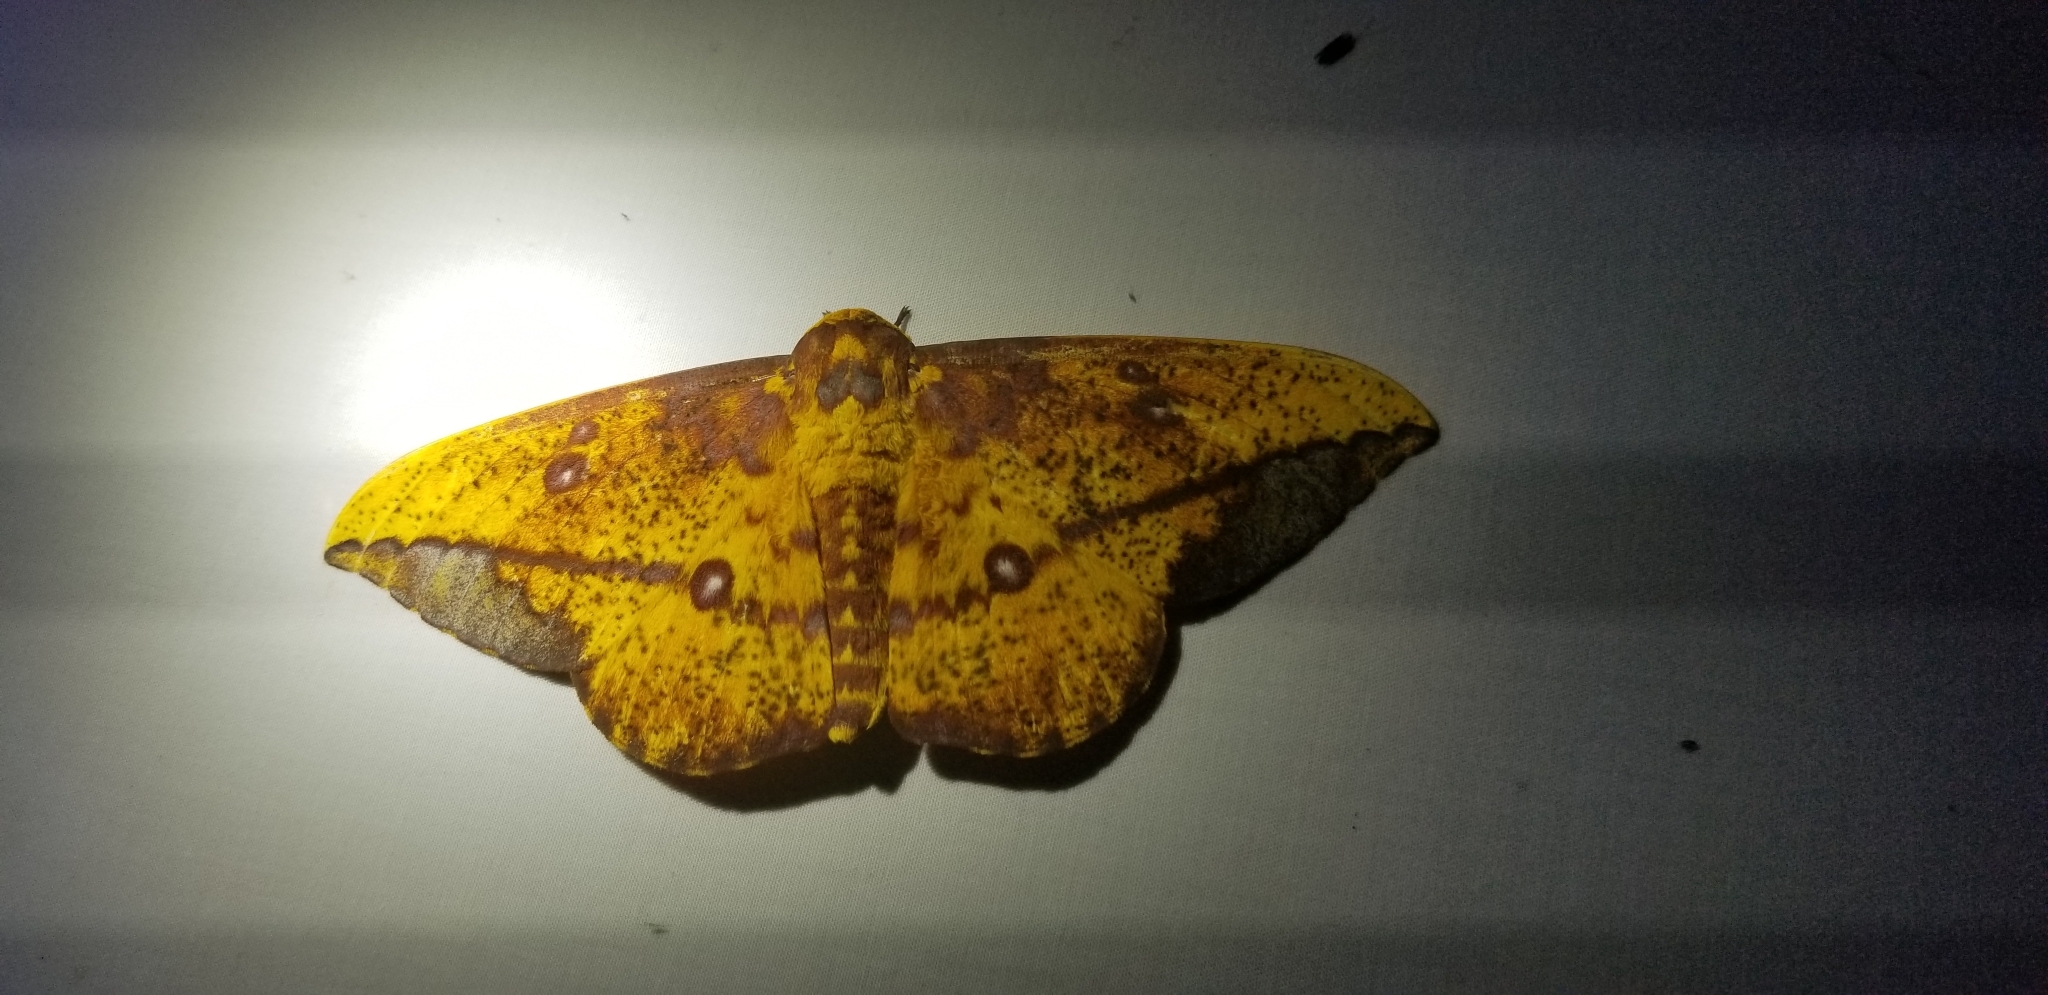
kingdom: Animalia
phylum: Arthropoda
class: Insecta
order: Lepidoptera
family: Saturniidae
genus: Eacles
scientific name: Eacles barnesi
